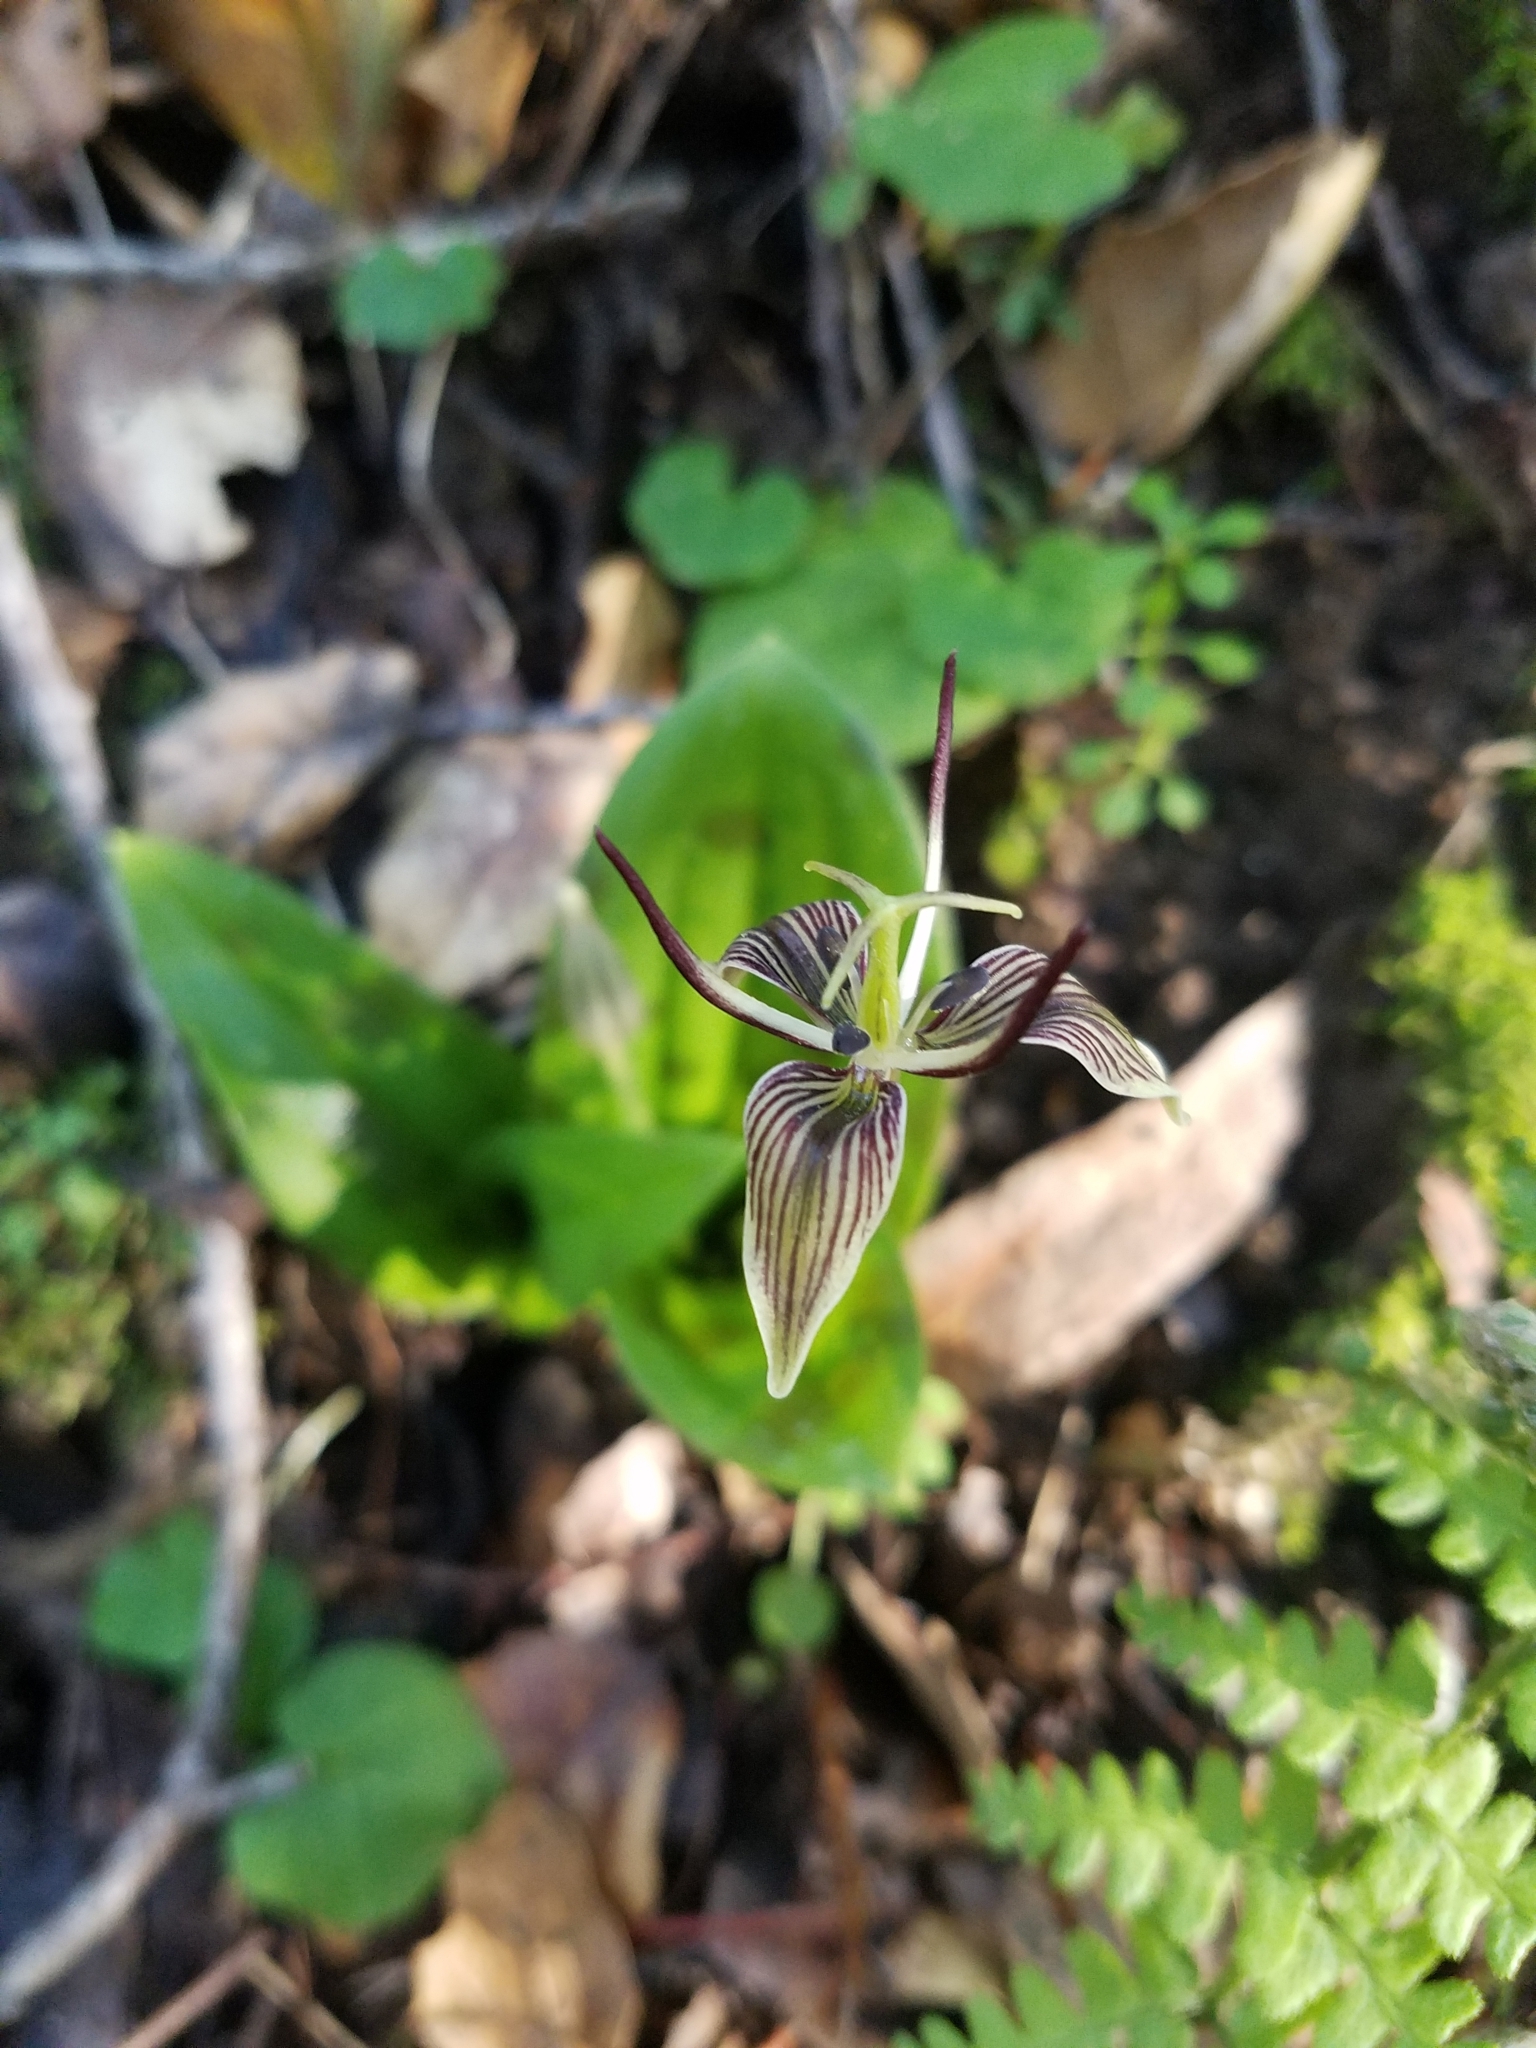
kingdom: Plantae
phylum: Tracheophyta
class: Liliopsida
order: Liliales
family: Liliaceae
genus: Scoliopus
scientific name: Scoliopus bigelovii
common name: Foetid adder's-tongue
